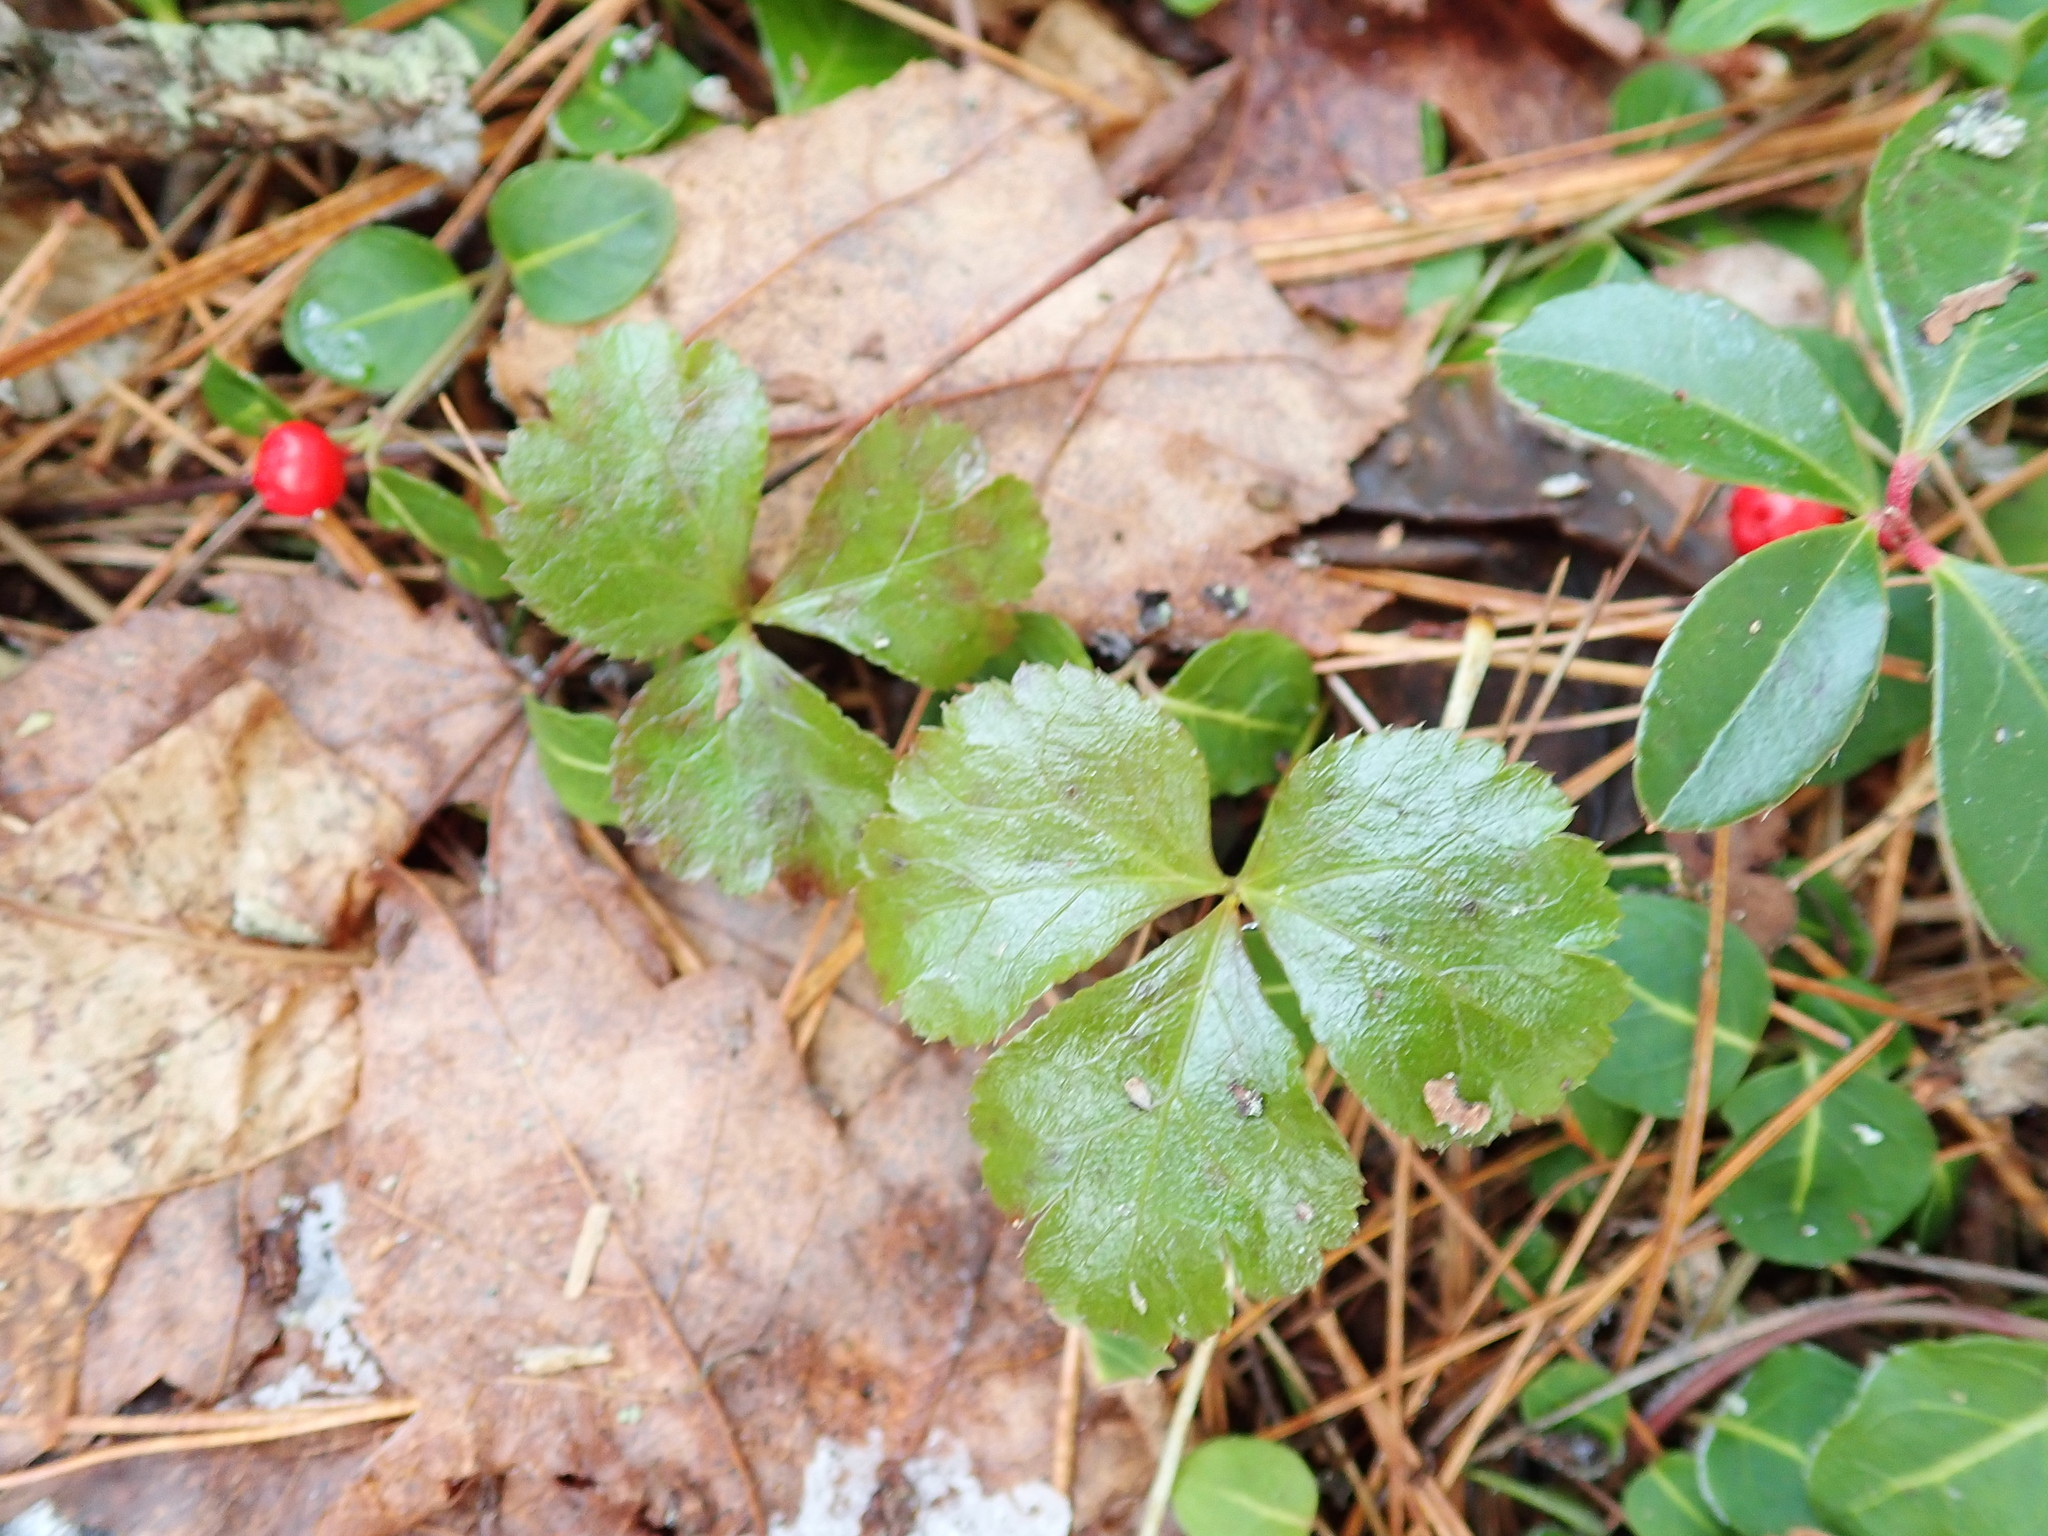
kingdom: Plantae
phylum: Tracheophyta
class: Magnoliopsida
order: Ranunculales
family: Ranunculaceae
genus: Coptis
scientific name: Coptis trifolia
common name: Canker-root
